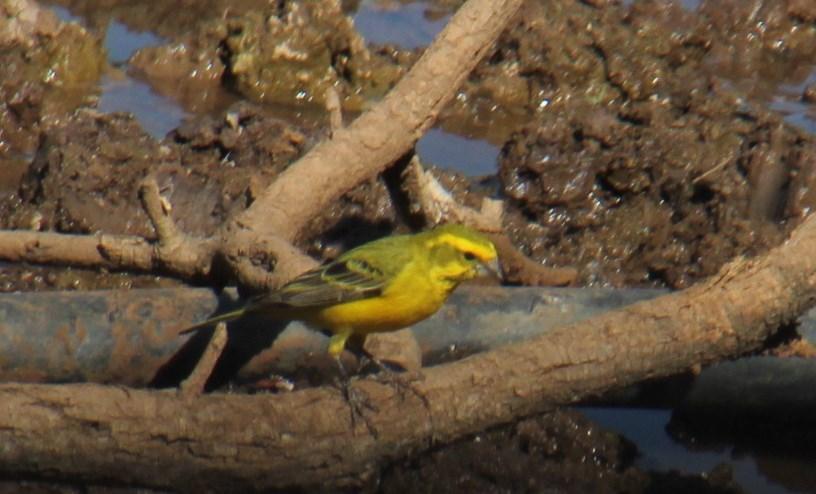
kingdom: Animalia
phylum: Chordata
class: Aves
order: Passeriformes
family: Fringillidae
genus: Crithagra
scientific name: Crithagra flaviventris
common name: Yellow canary
